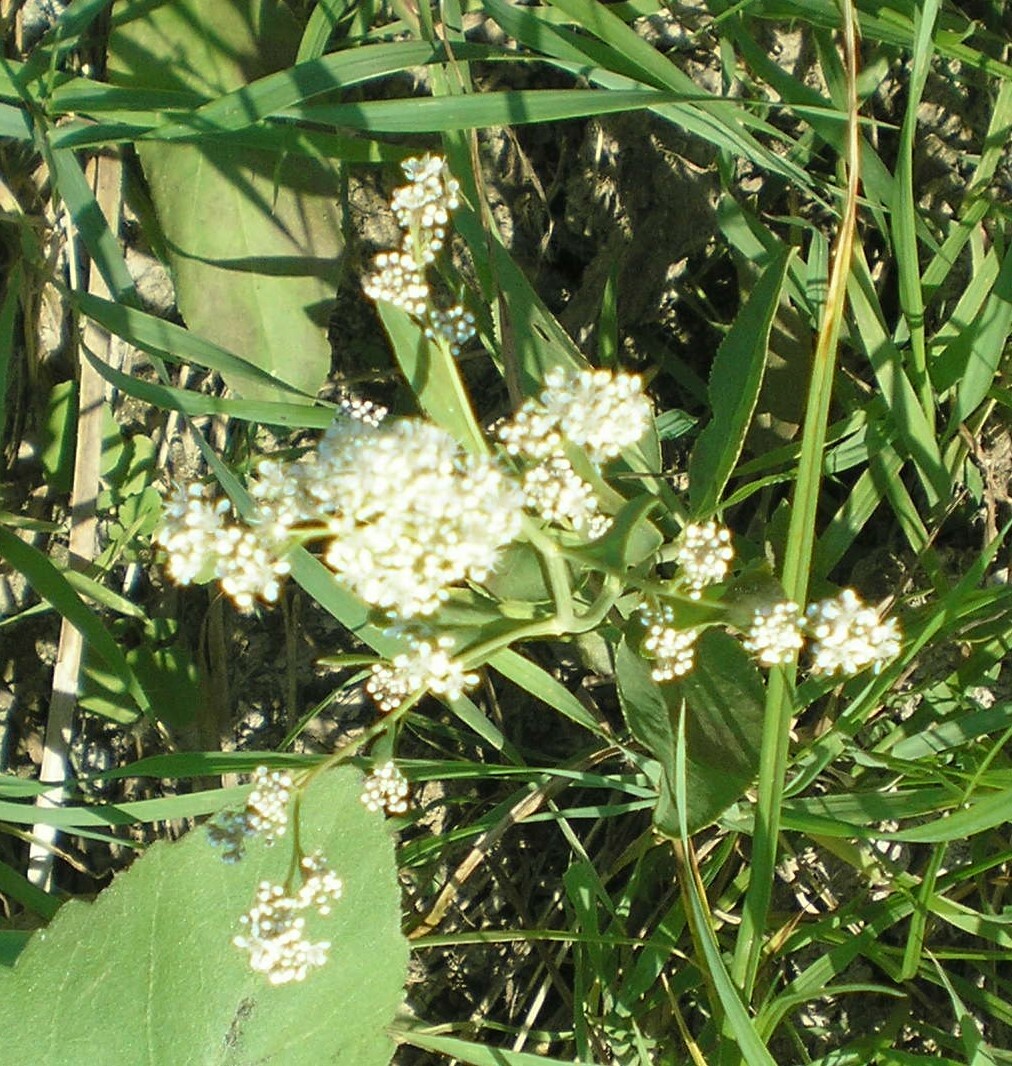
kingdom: Plantae
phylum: Tracheophyta
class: Magnoliopsida
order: Brassicales
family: Brassicaceae
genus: Lepidium
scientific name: Lepidium latifolium
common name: Dittander
